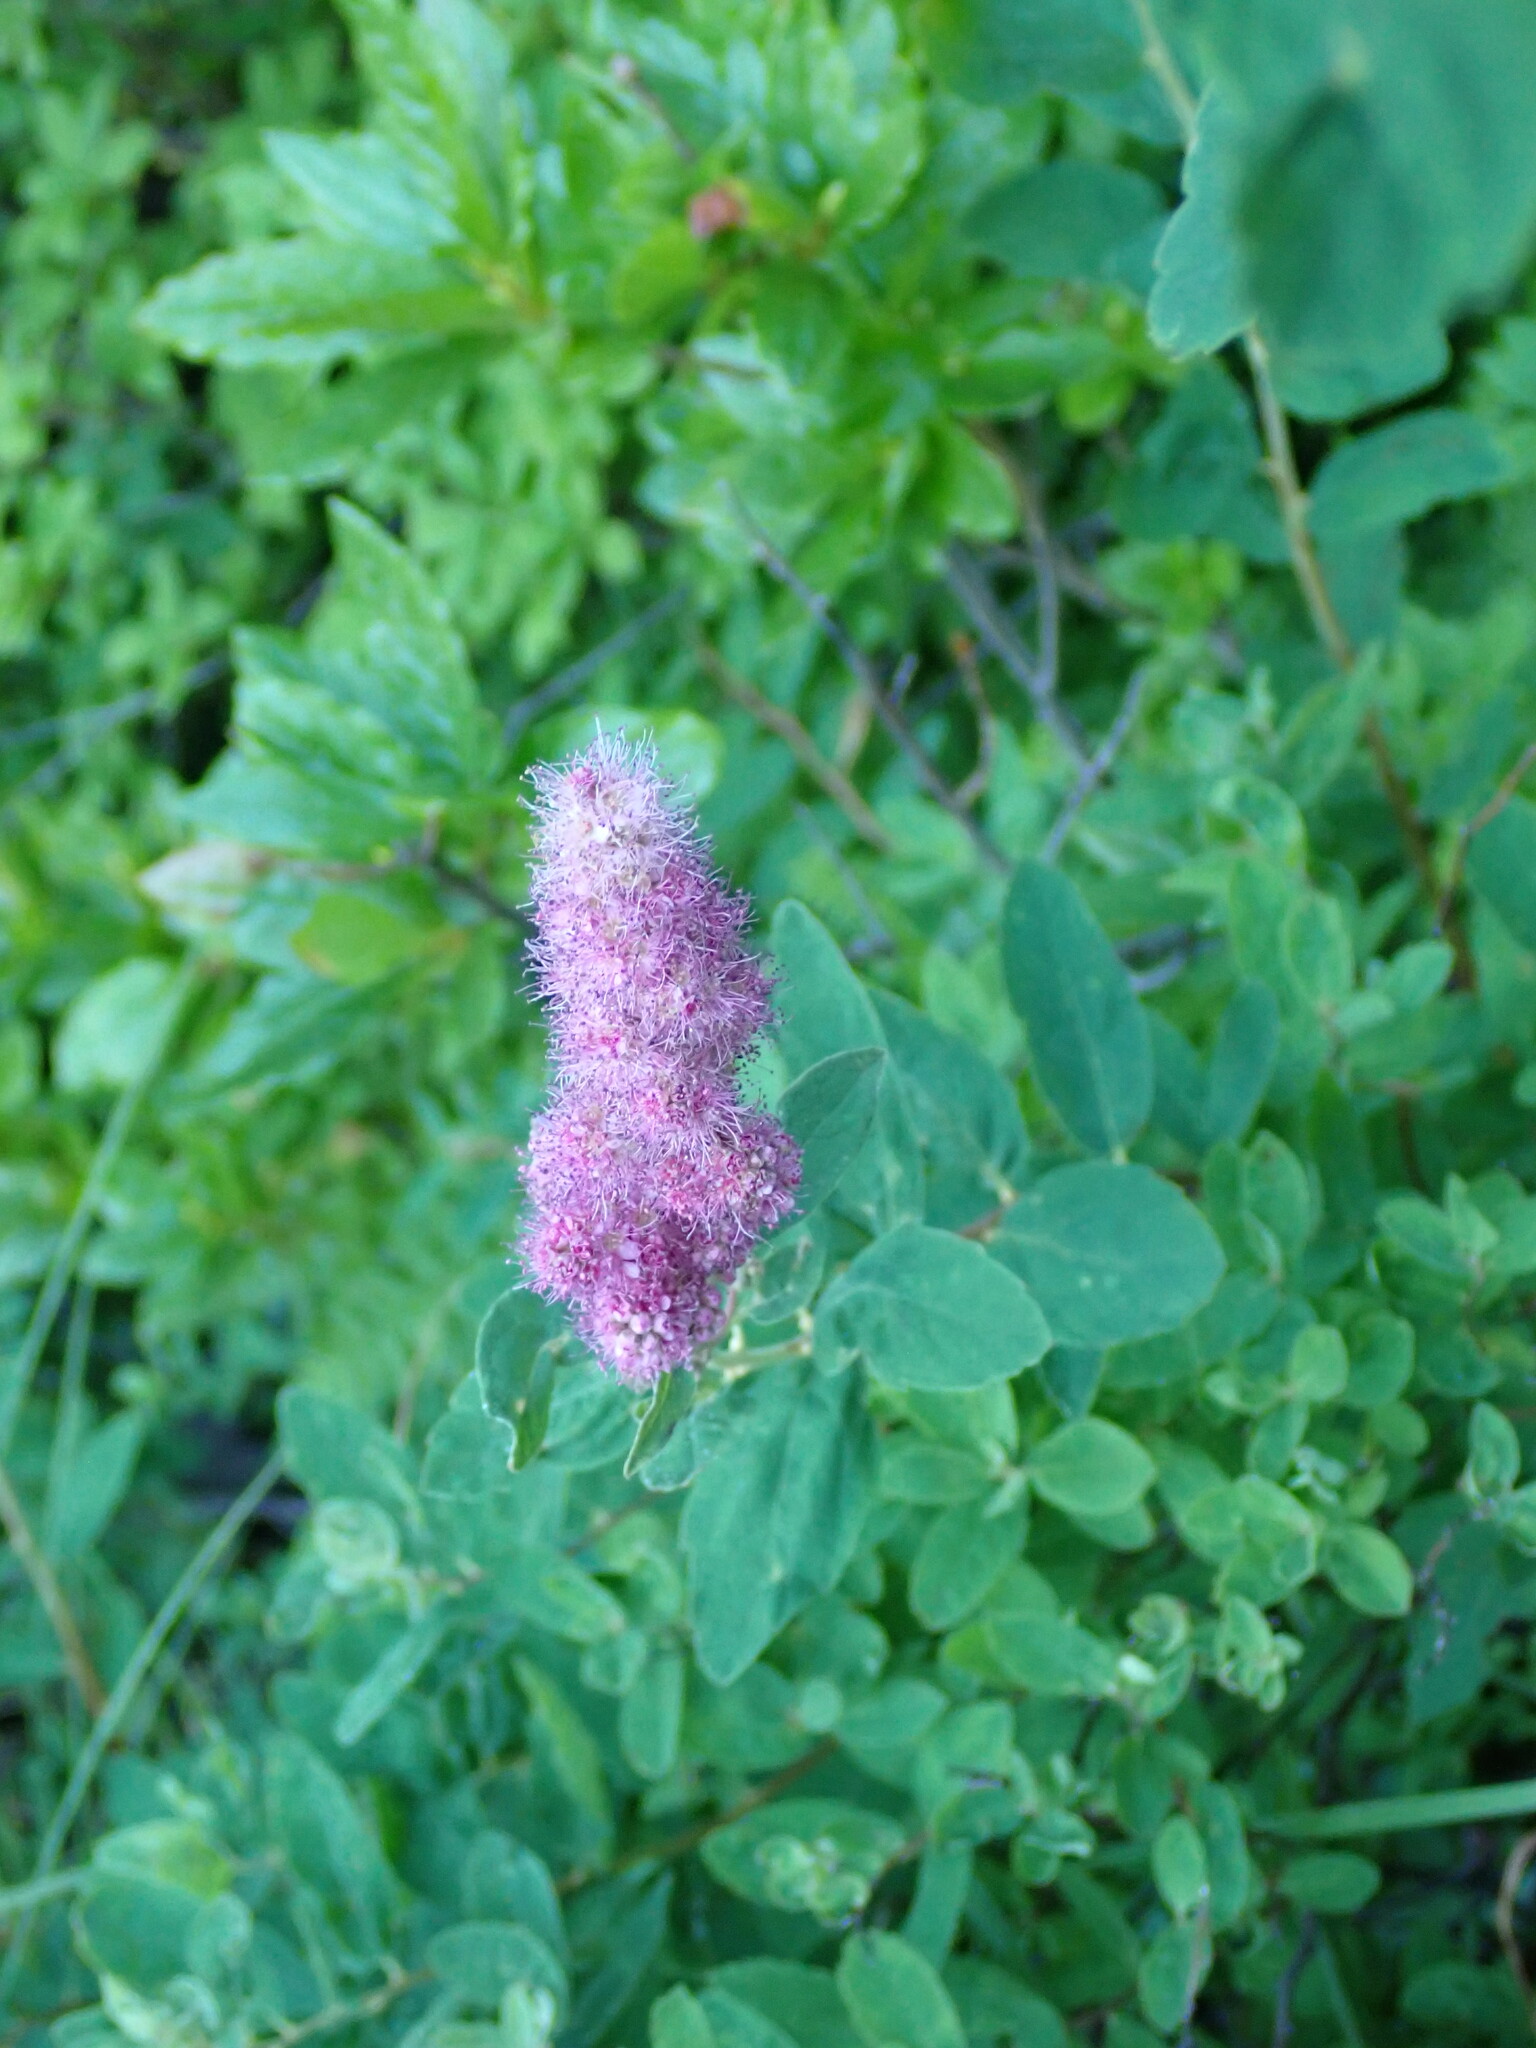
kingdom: Plantae
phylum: Tracheophyta
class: Magnoliopsida
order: Rosales
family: Rosaceae
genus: Spiraea
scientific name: Spiraea douglasii
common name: Steeplebush
